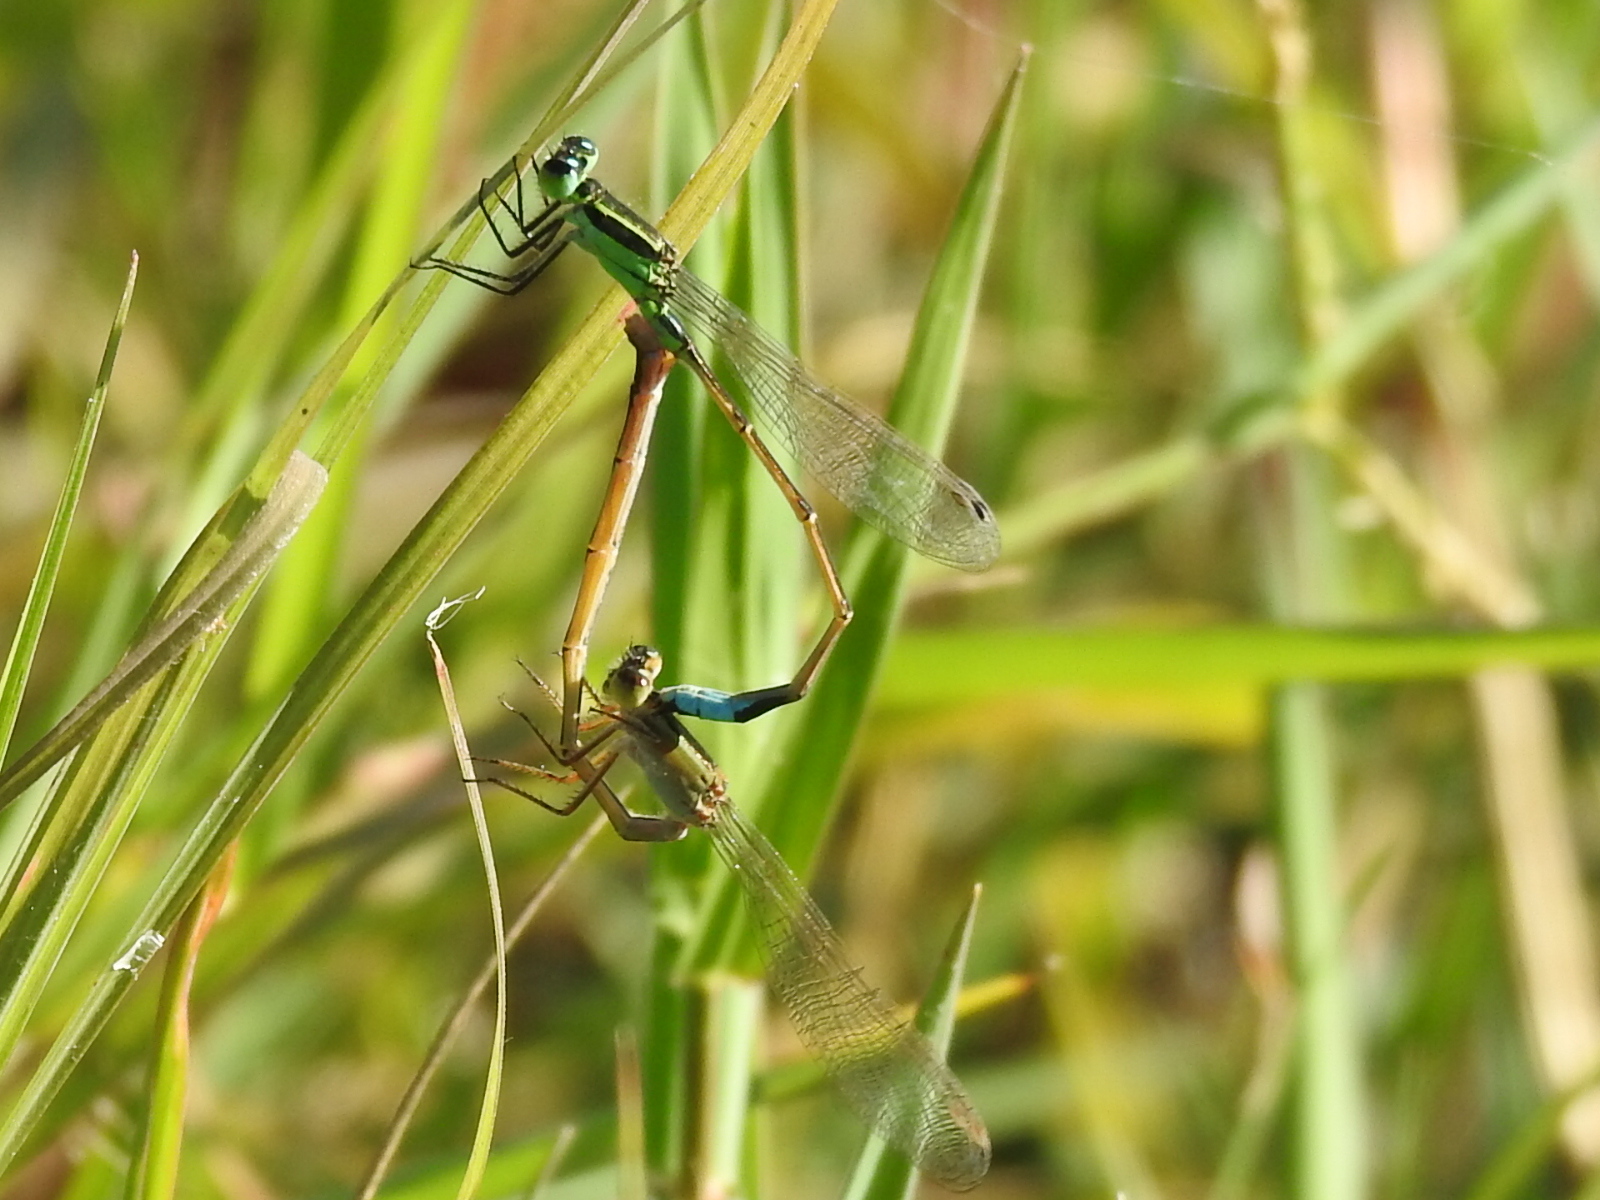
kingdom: Animalia
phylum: Arthropoda
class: Insecta
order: Odonata
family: Coenagrionidae
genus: Ischnura
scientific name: Ischnura ramburii
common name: Rambur's forktail
